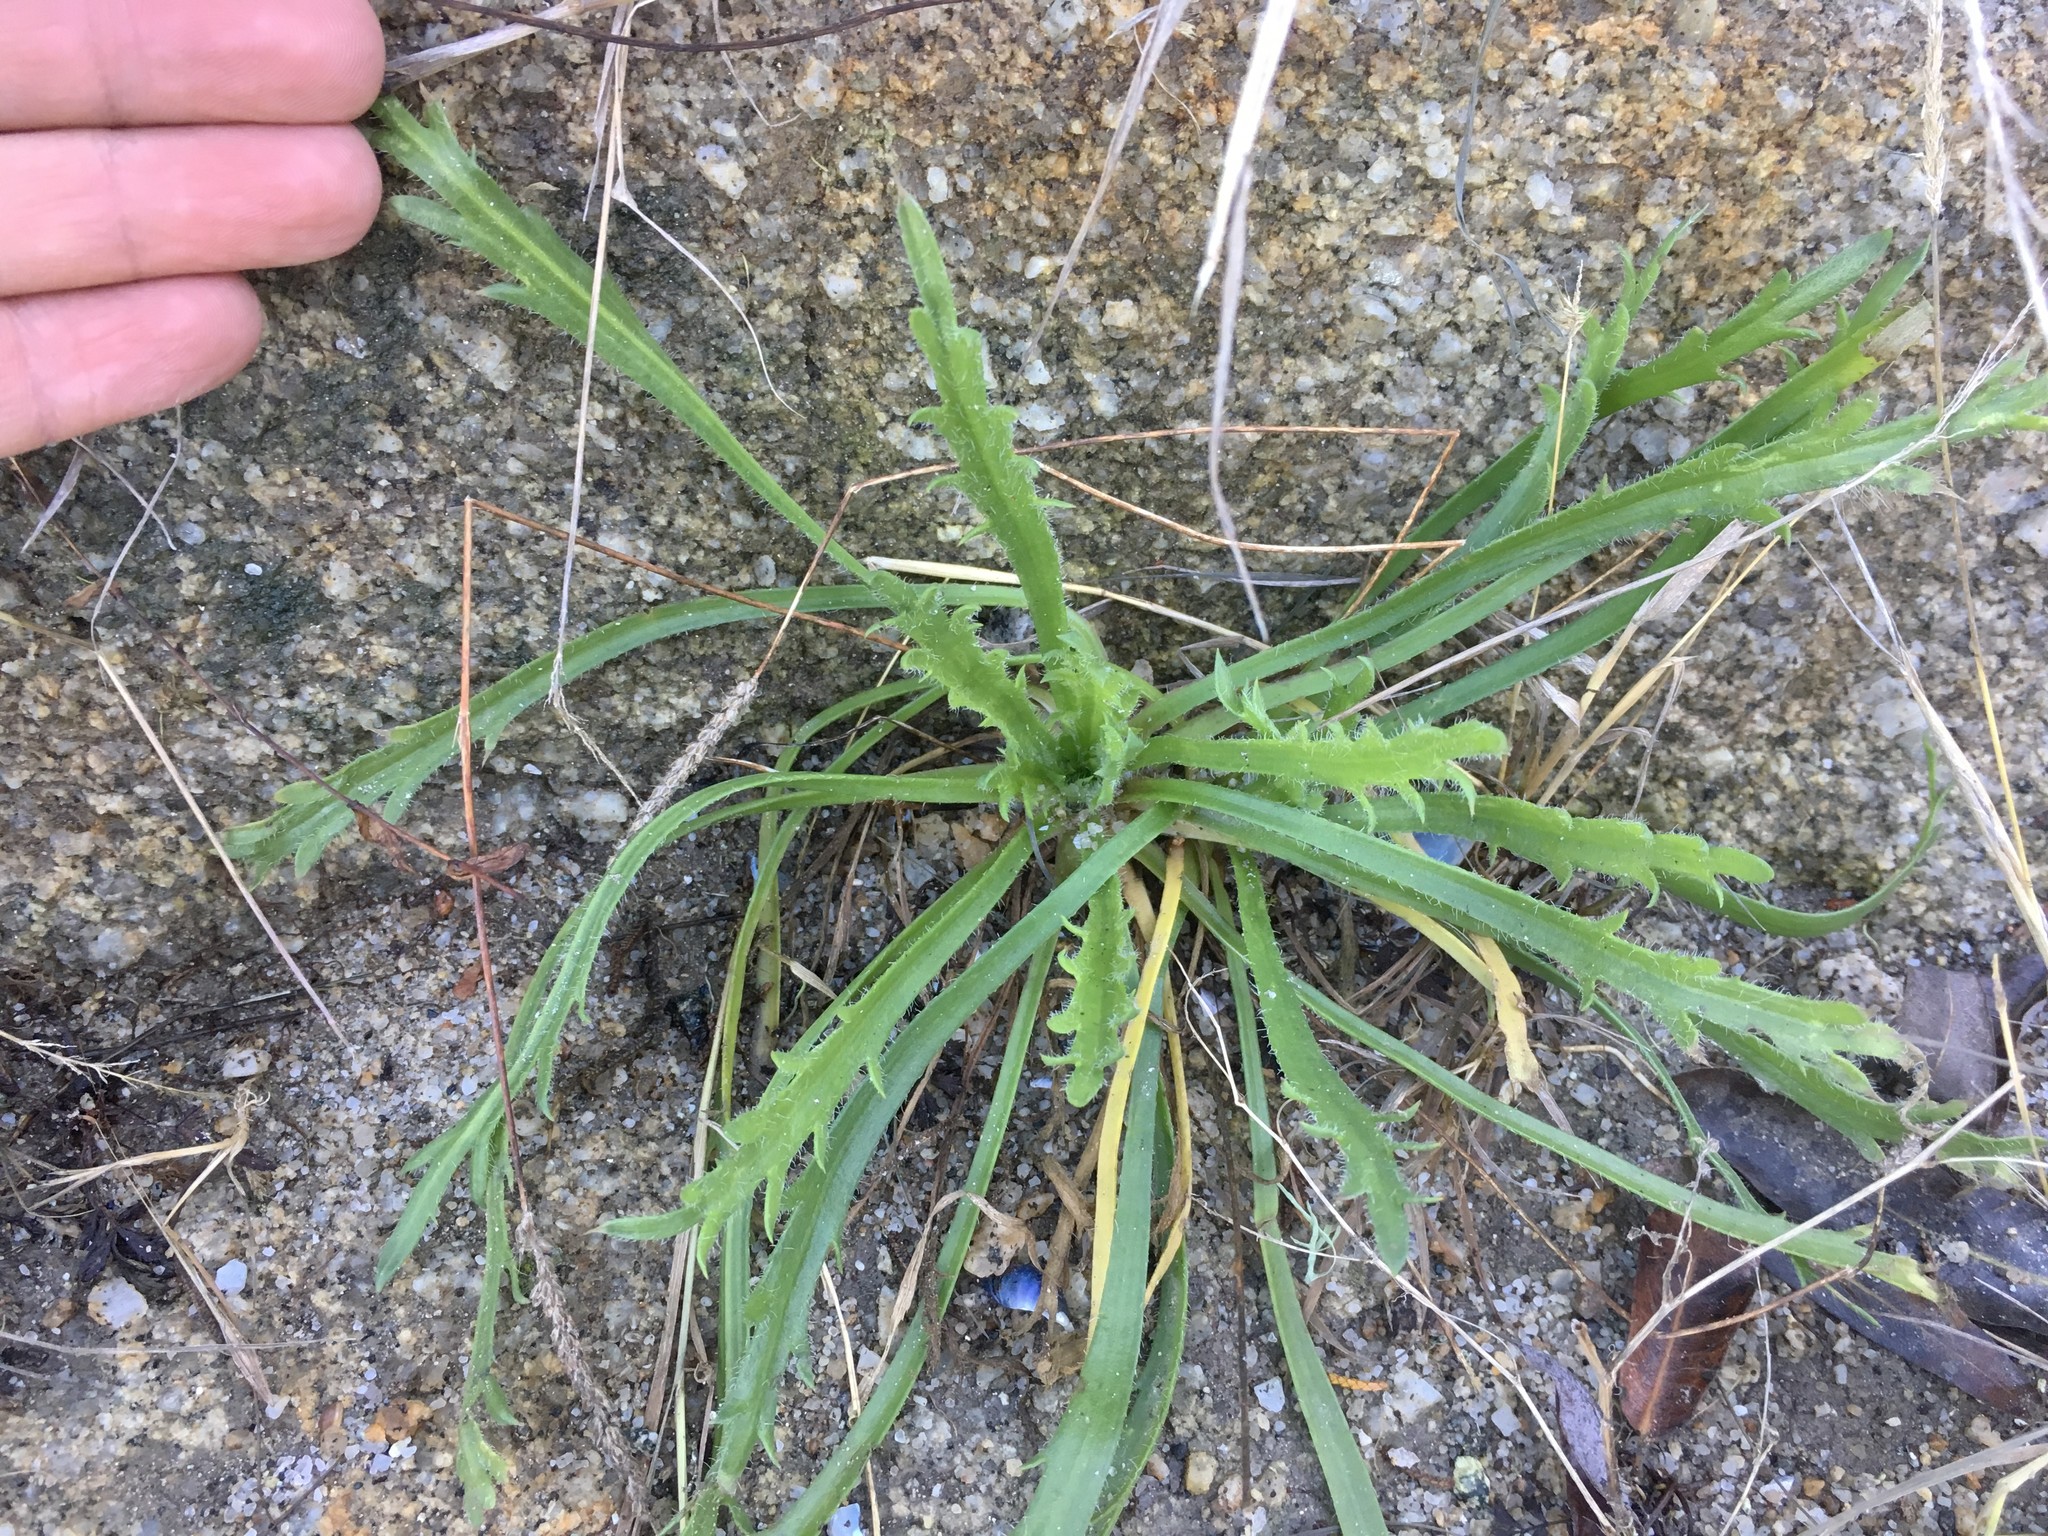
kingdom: Plantae
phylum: Tracheophyta
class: Magnoliopsida
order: Lamiales
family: Plantaginaceae
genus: Plantago
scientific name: Plantago coronopus
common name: Buck's-horn plantain
